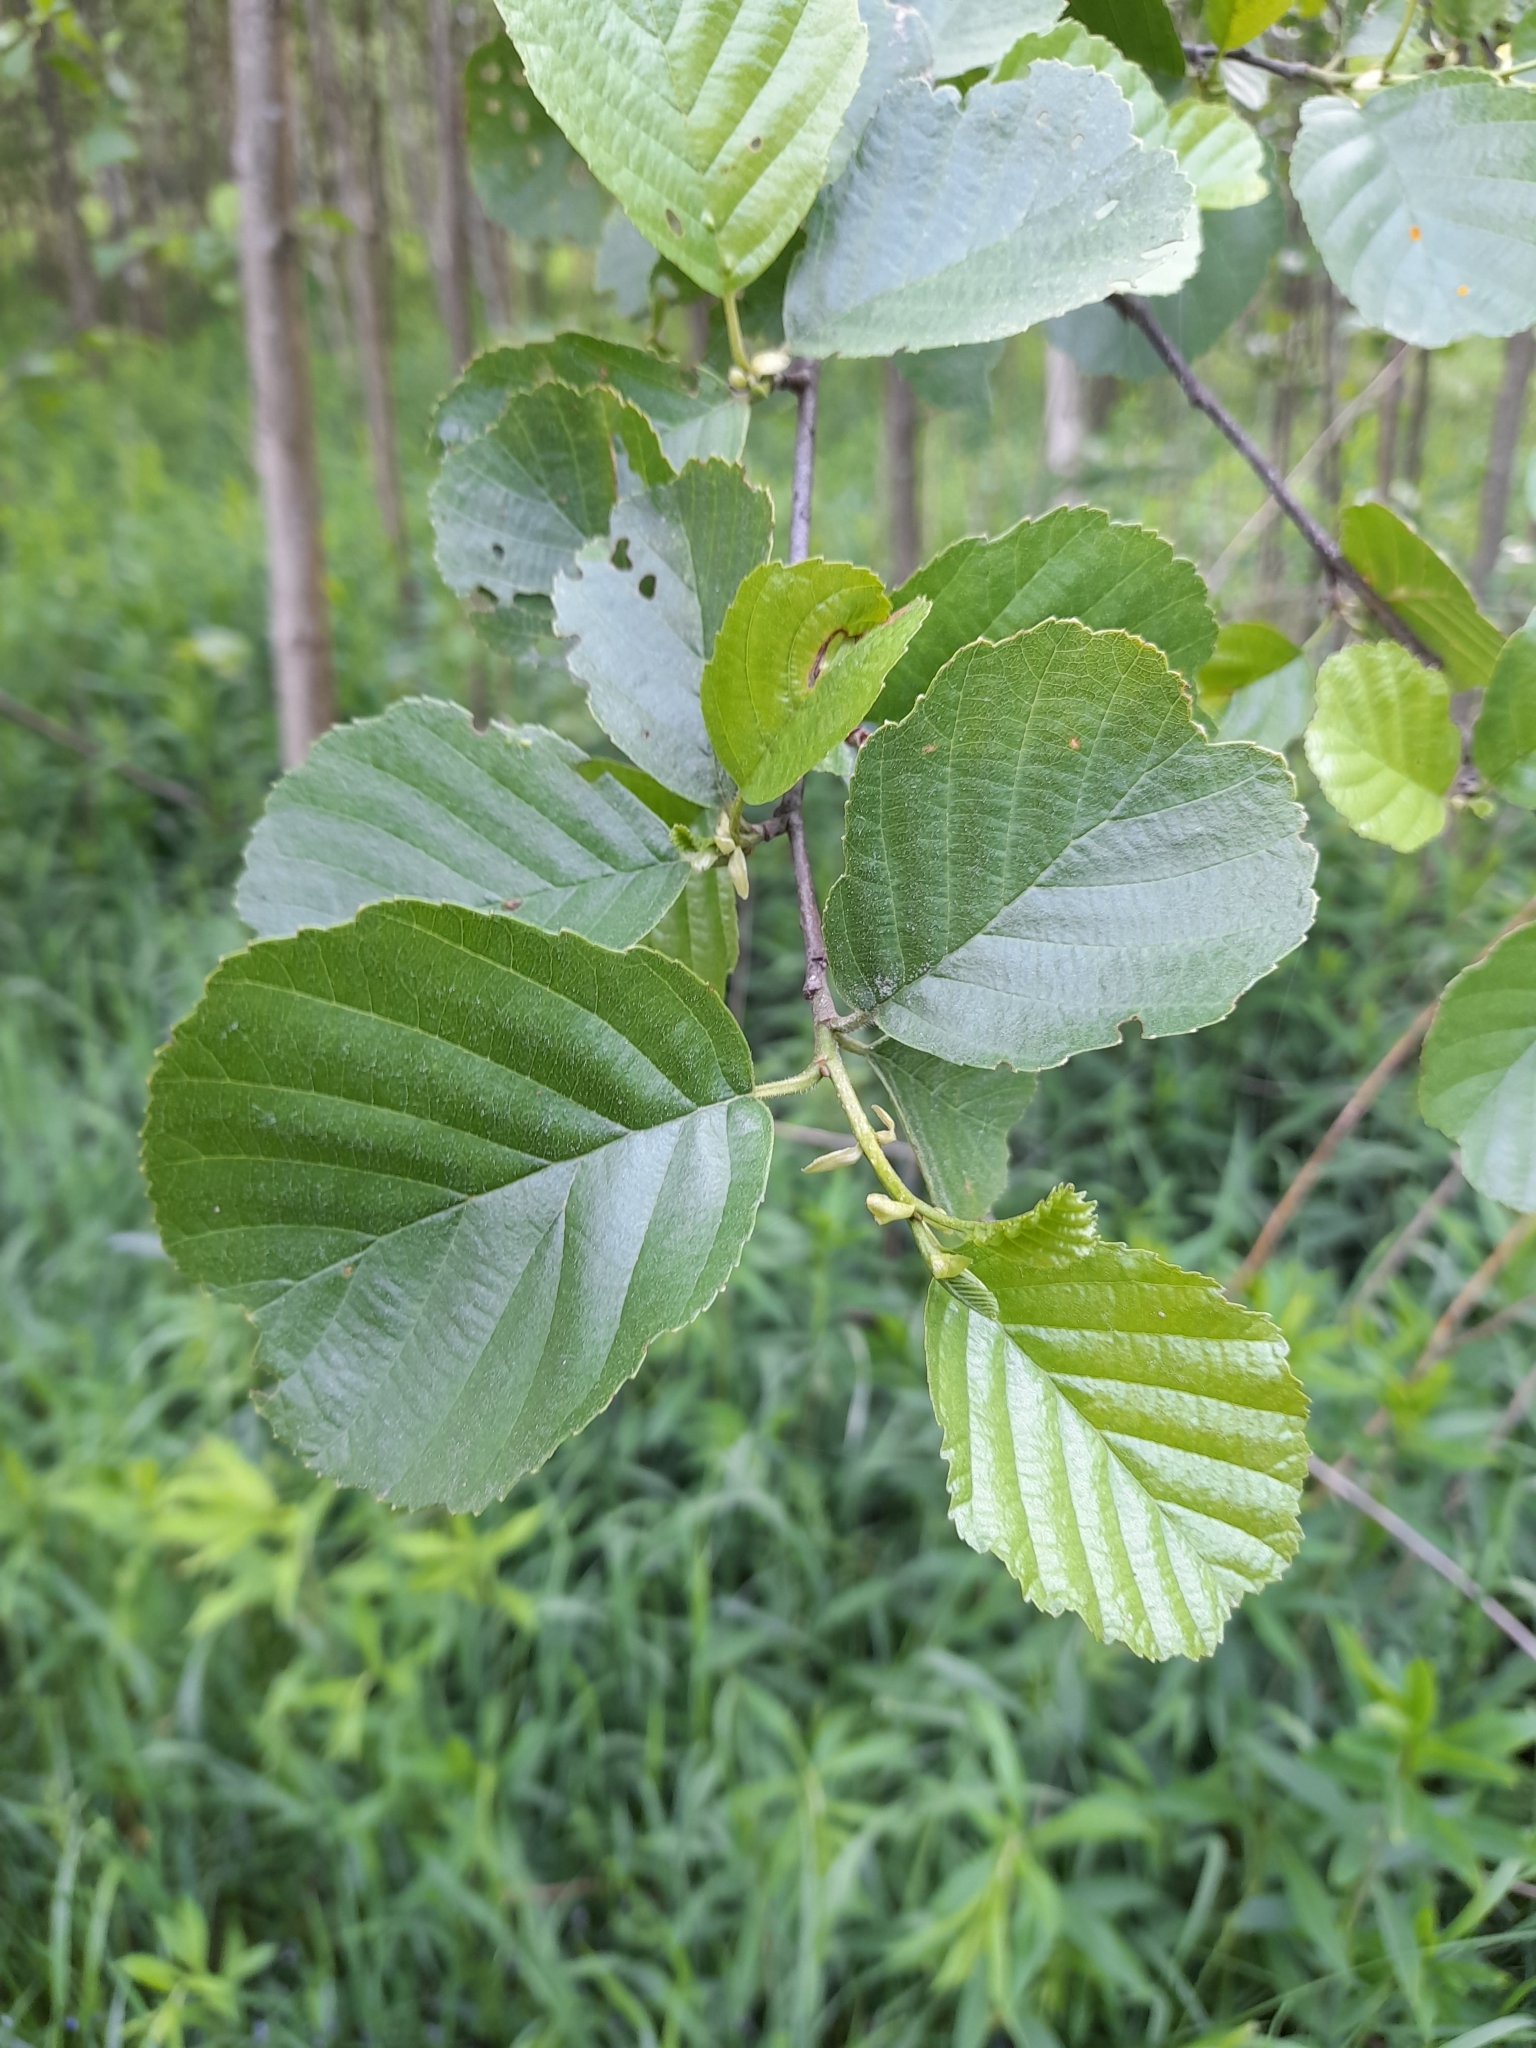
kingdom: Plantae
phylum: Tracheophyta
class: Magnoliopsida
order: Fagales
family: Betulaceae
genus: Alnus
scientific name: Alnus glutinosa
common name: Black alder
